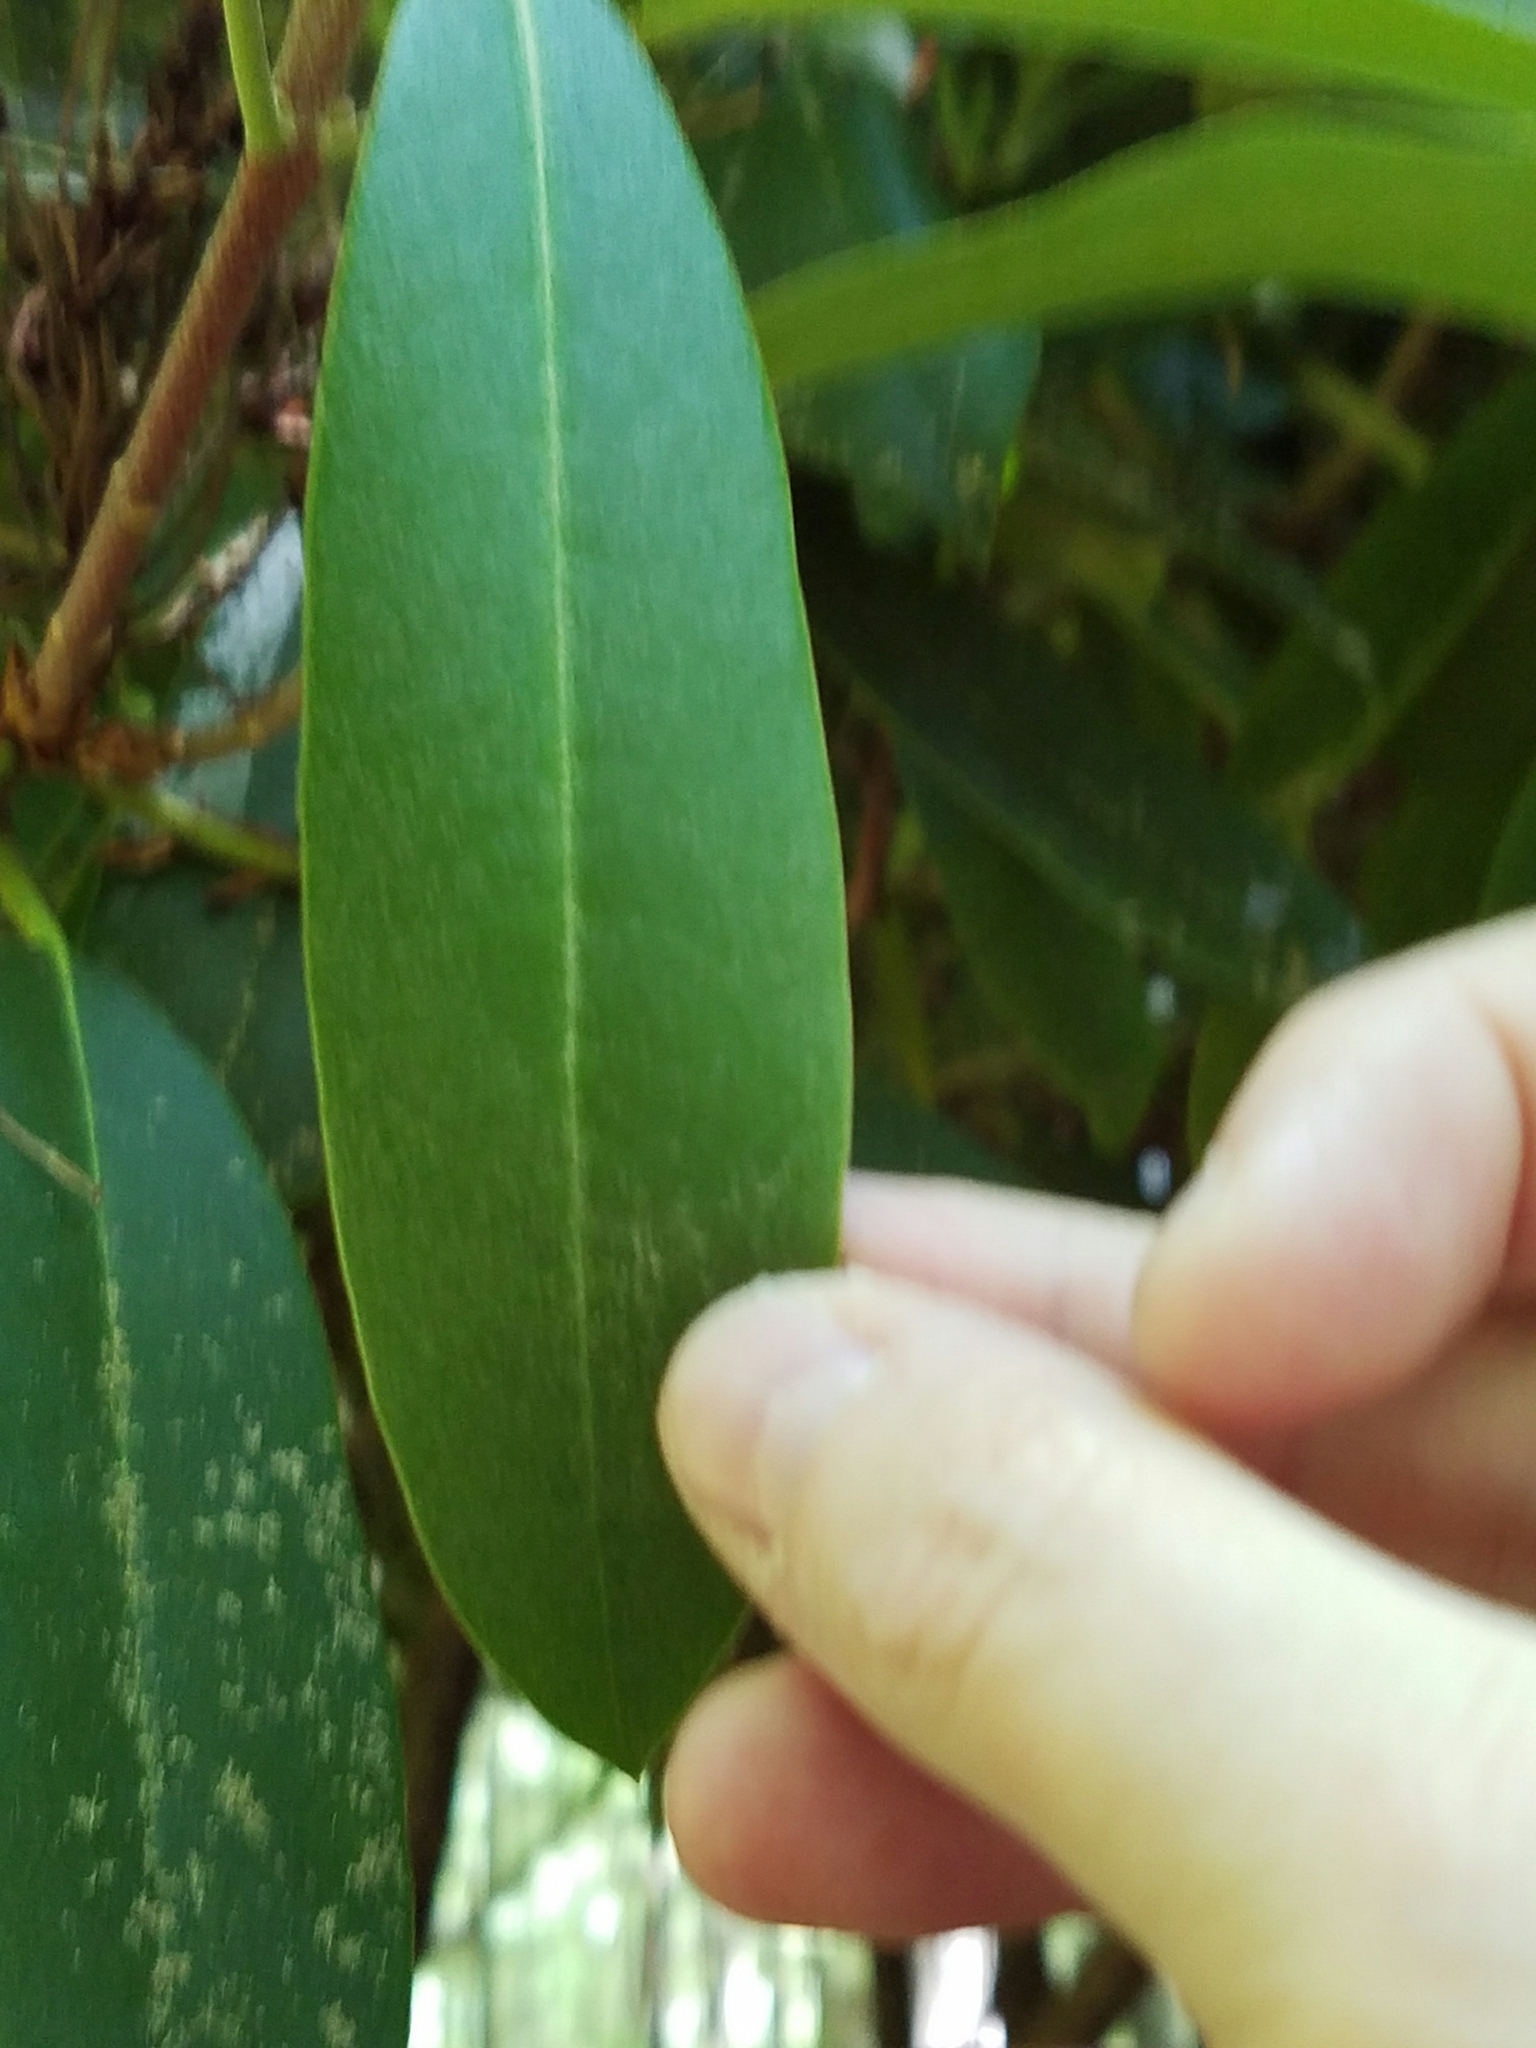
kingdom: Plantae
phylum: Tracheophyta
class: Magnoliopsida
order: Ericales
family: Ericaceae
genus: Rhododendron
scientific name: Rhododendron maximum
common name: Great rhododendron
